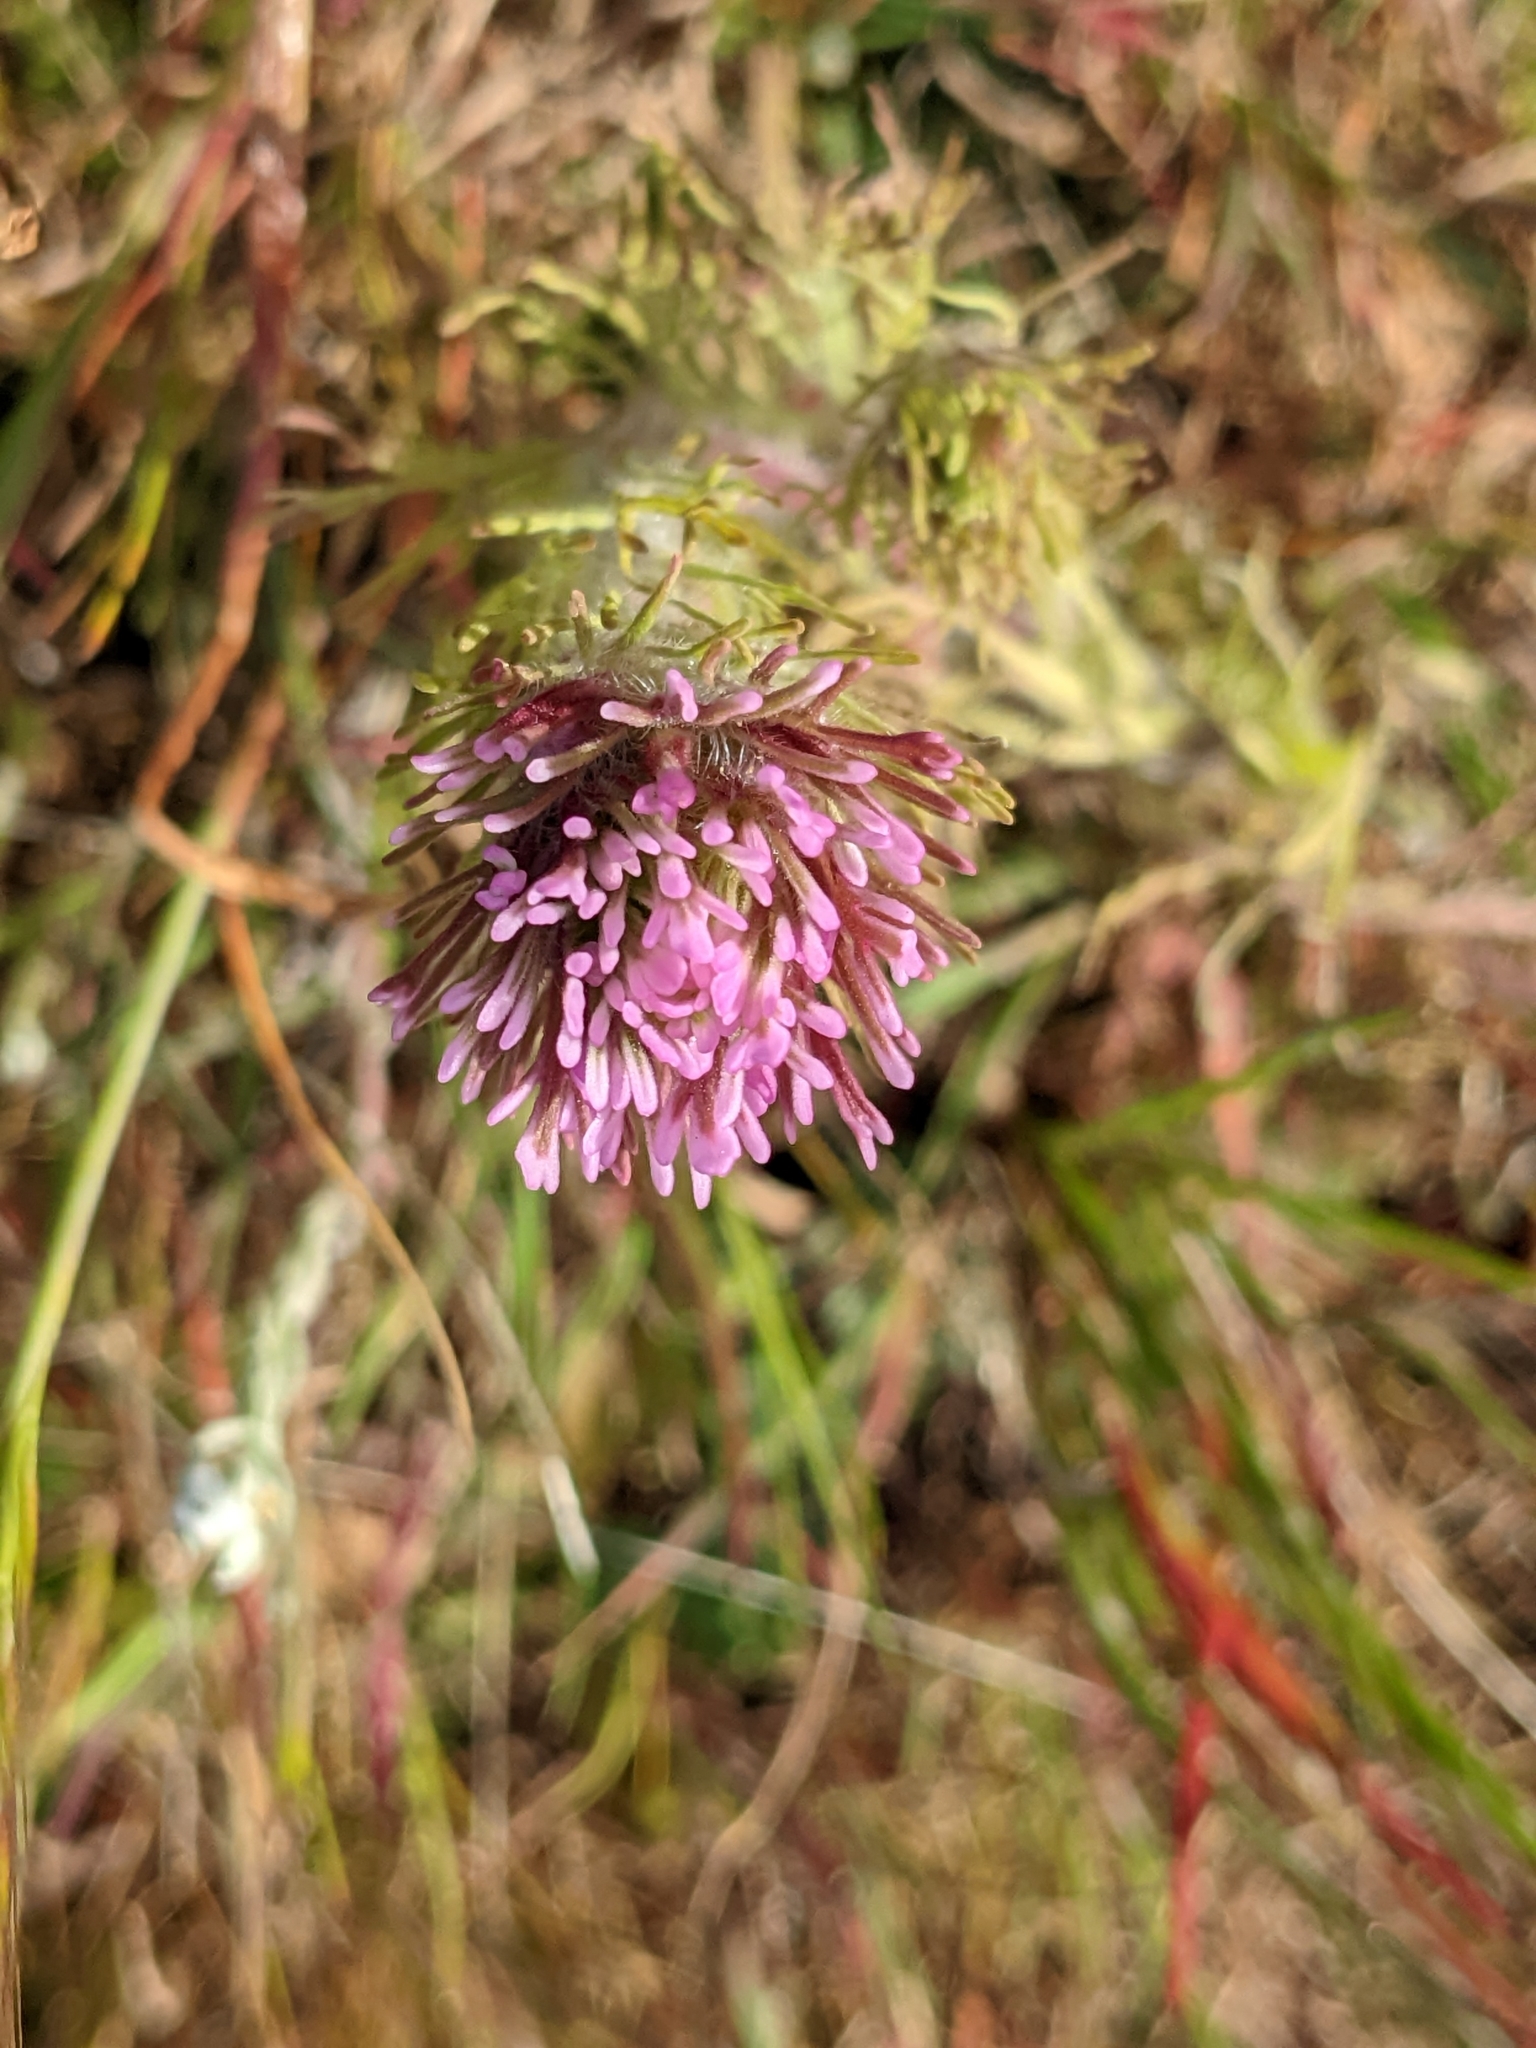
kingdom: Plantae
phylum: Tracheophyta
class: Magnoliopsida
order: Lamiales
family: Orobanchaceae
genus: Castilleja
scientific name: Castilleja exserta
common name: Purple owl-clover
